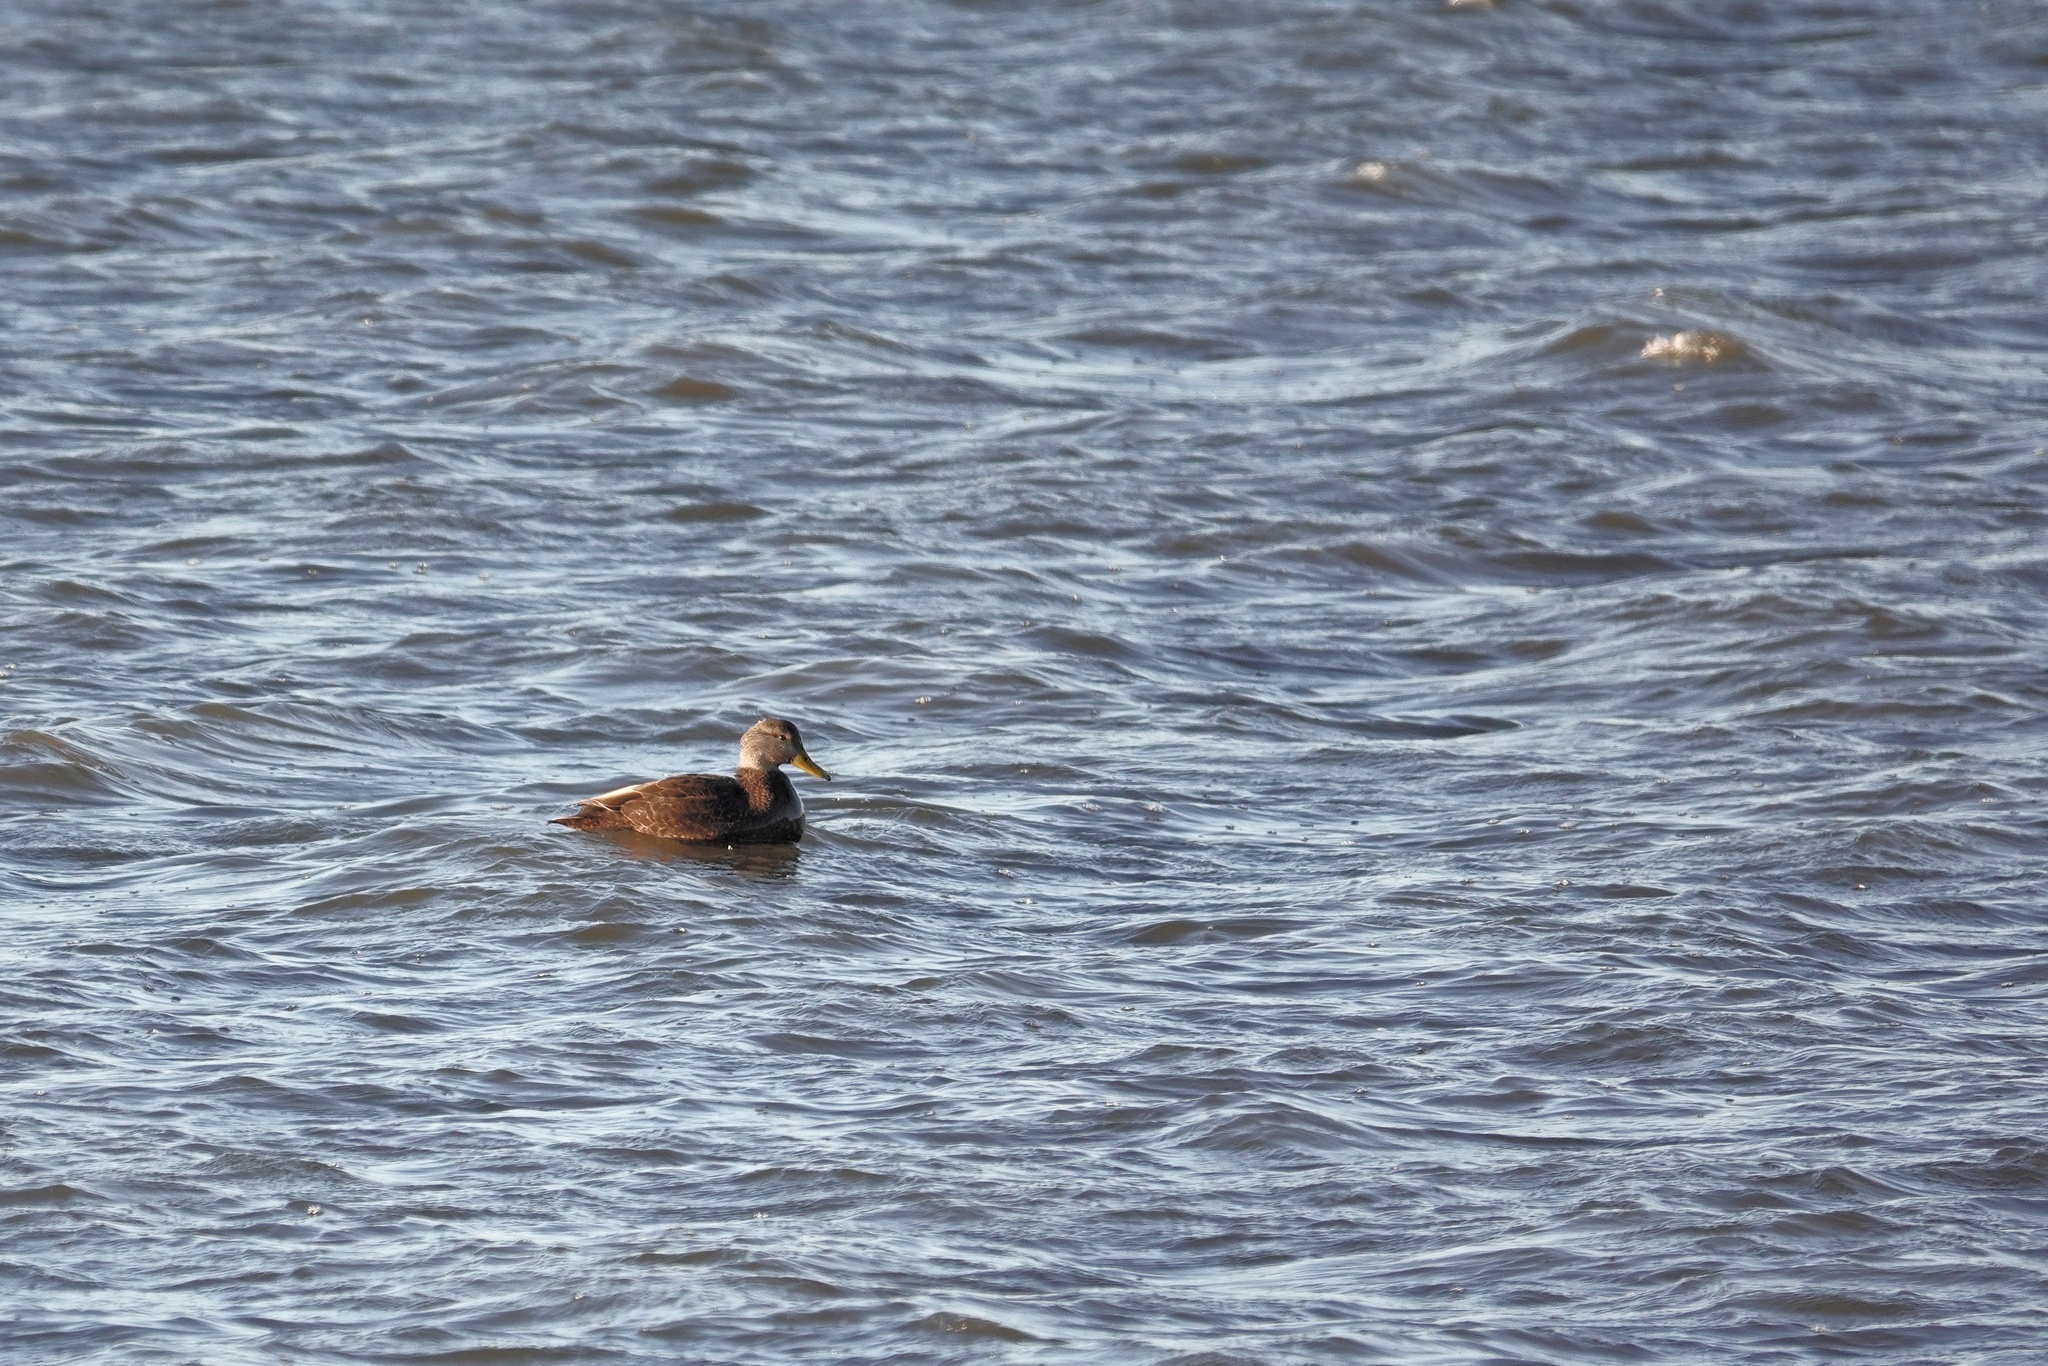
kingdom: Animalia
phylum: Chordata
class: Aves
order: Anseriformes
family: Anatidae
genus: Anas
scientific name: Anas rubripes
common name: American black duck
